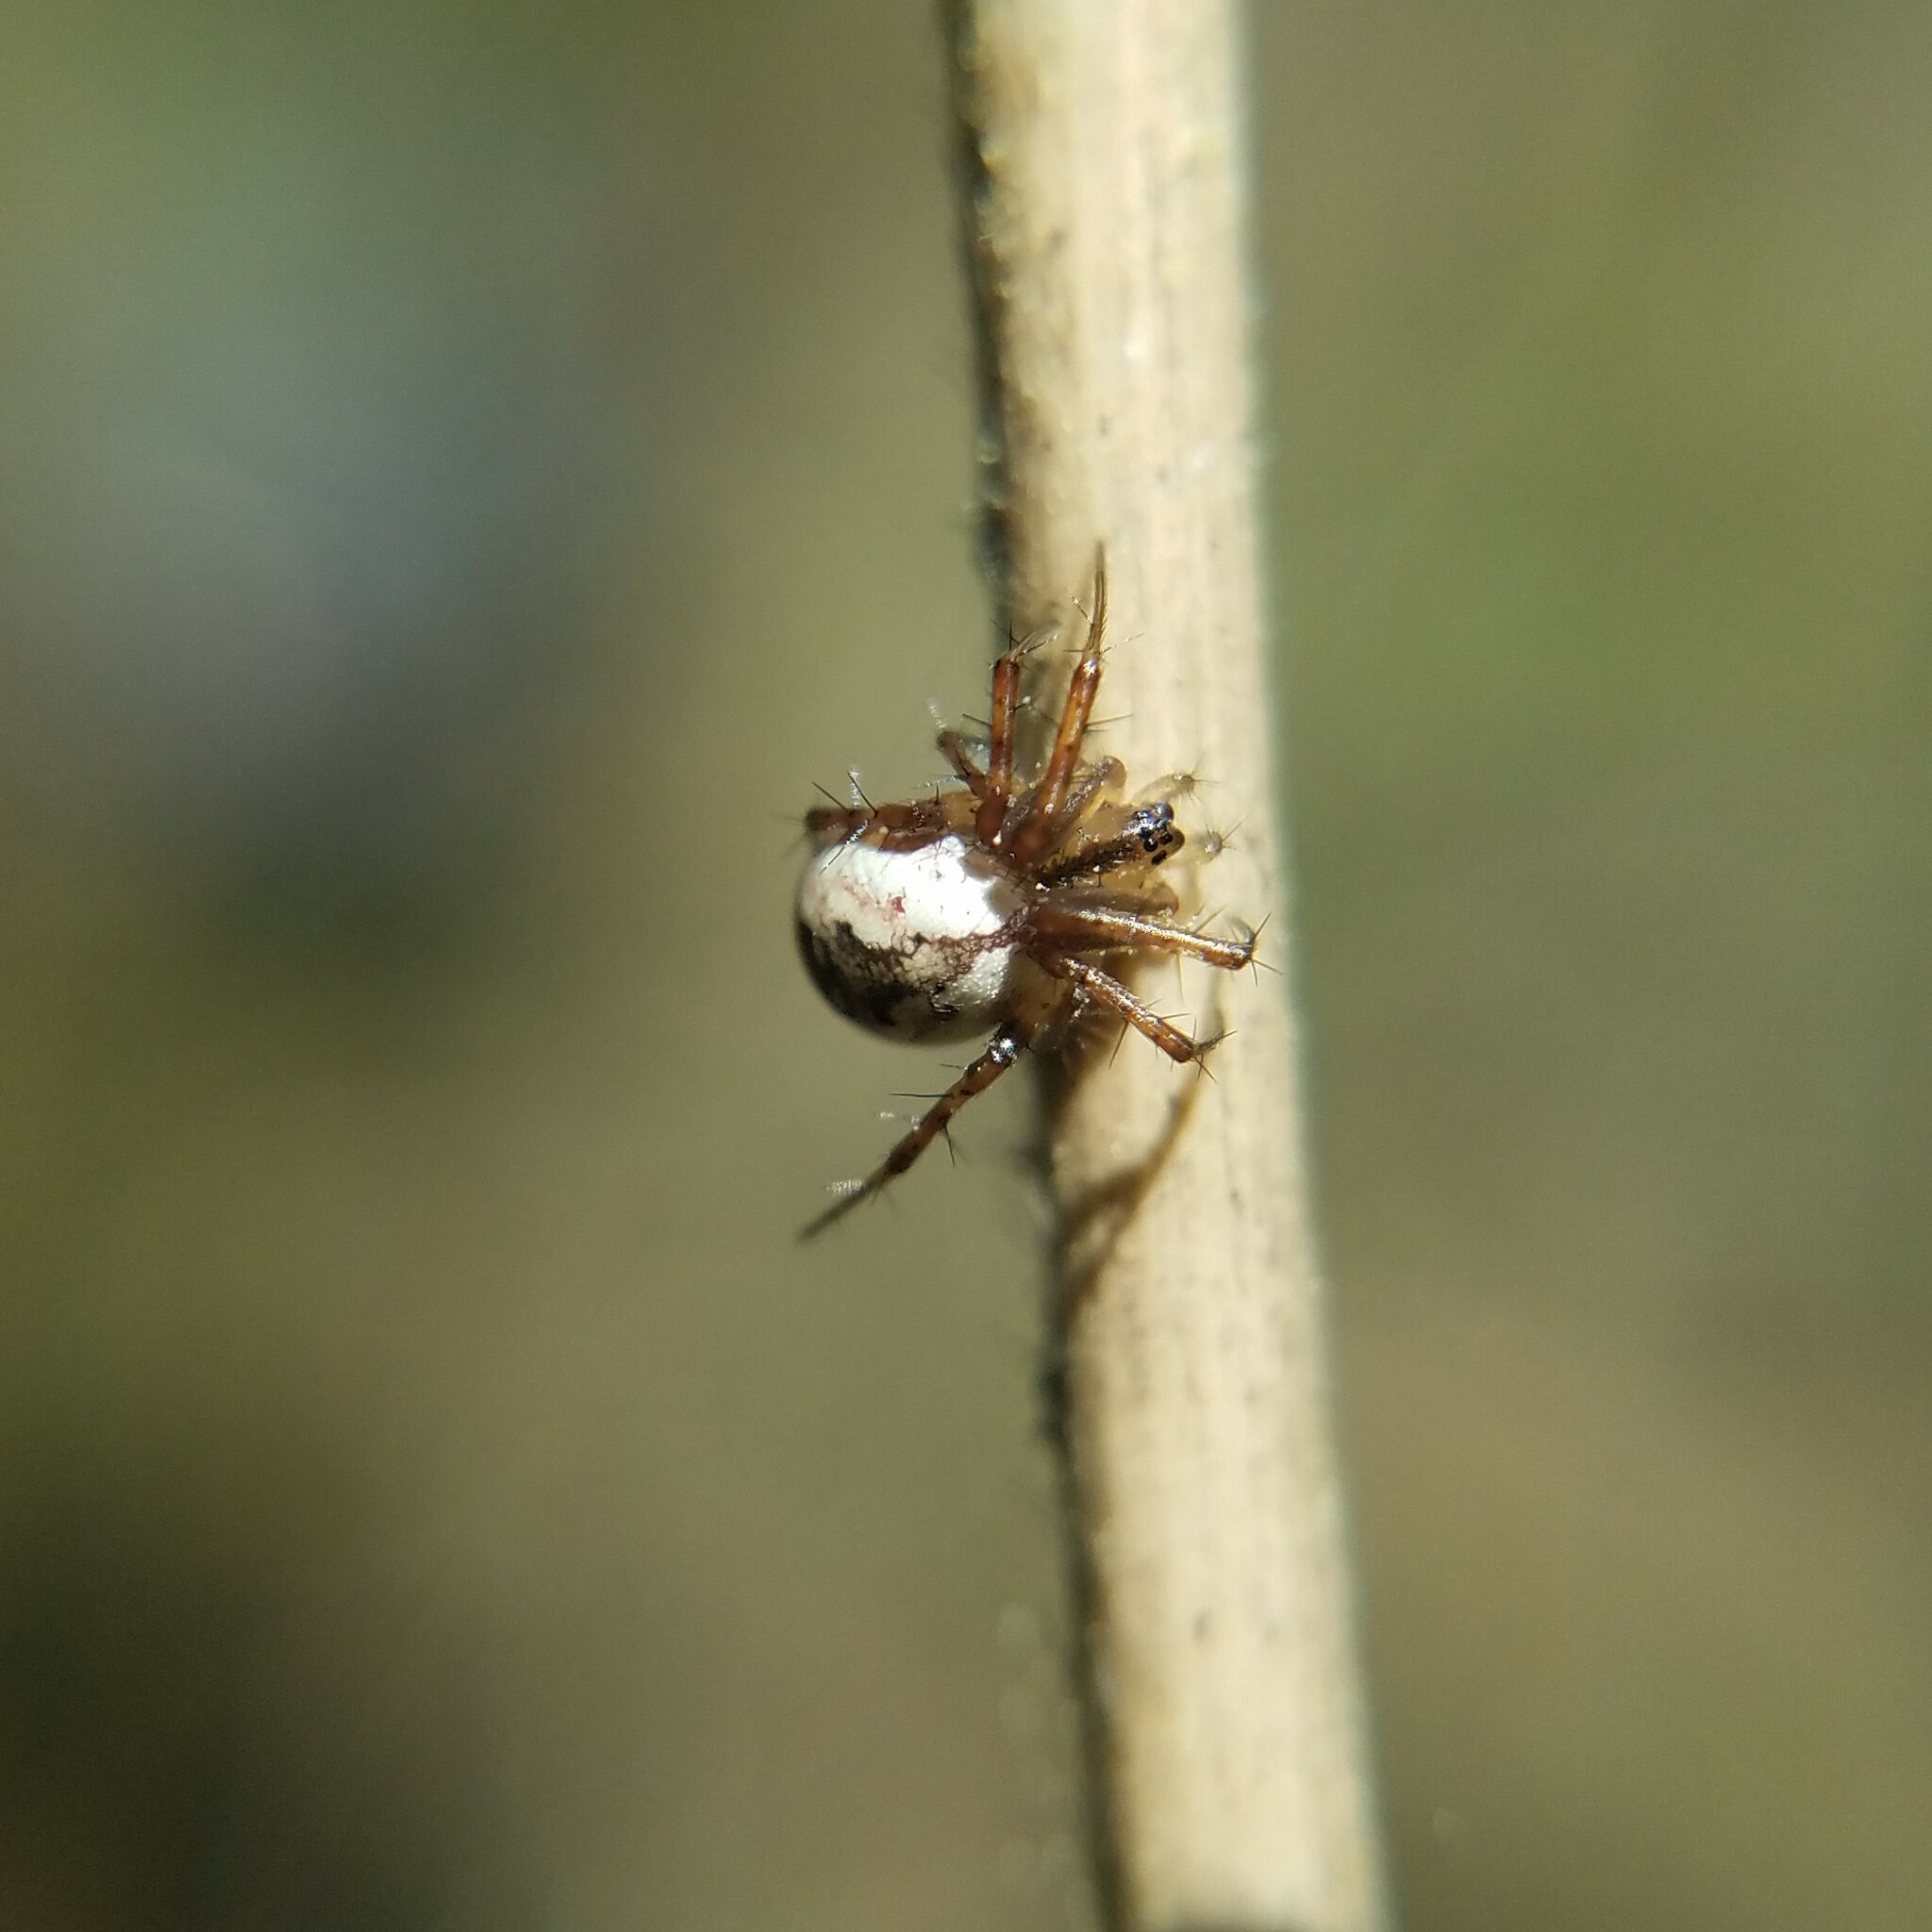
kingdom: Animalia
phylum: Arthropoda
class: Arachnida
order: Araneae
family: Araneidae
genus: Mangora
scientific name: Mangora placida
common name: Tuft-legged orbweaver
